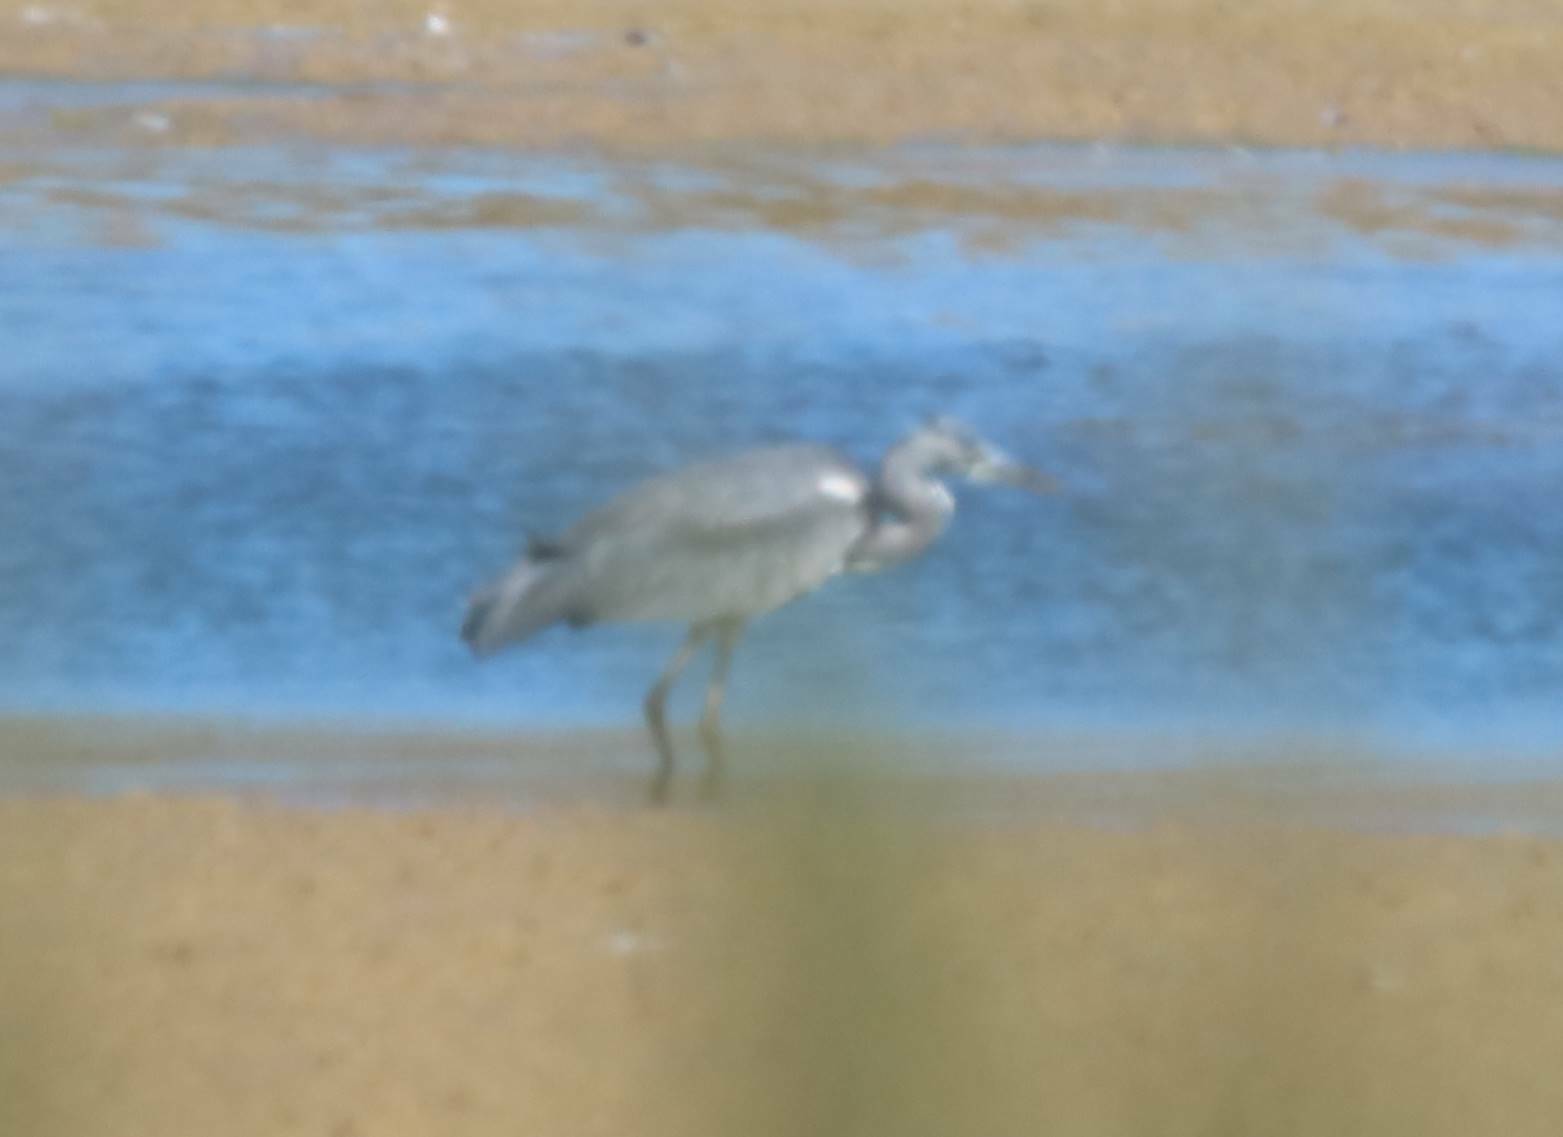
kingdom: Animalia
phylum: Chordata
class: Aves
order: Pelecaniformes
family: Ardeidae
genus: Ardea
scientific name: Ardea cinerea
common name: Grey heron
